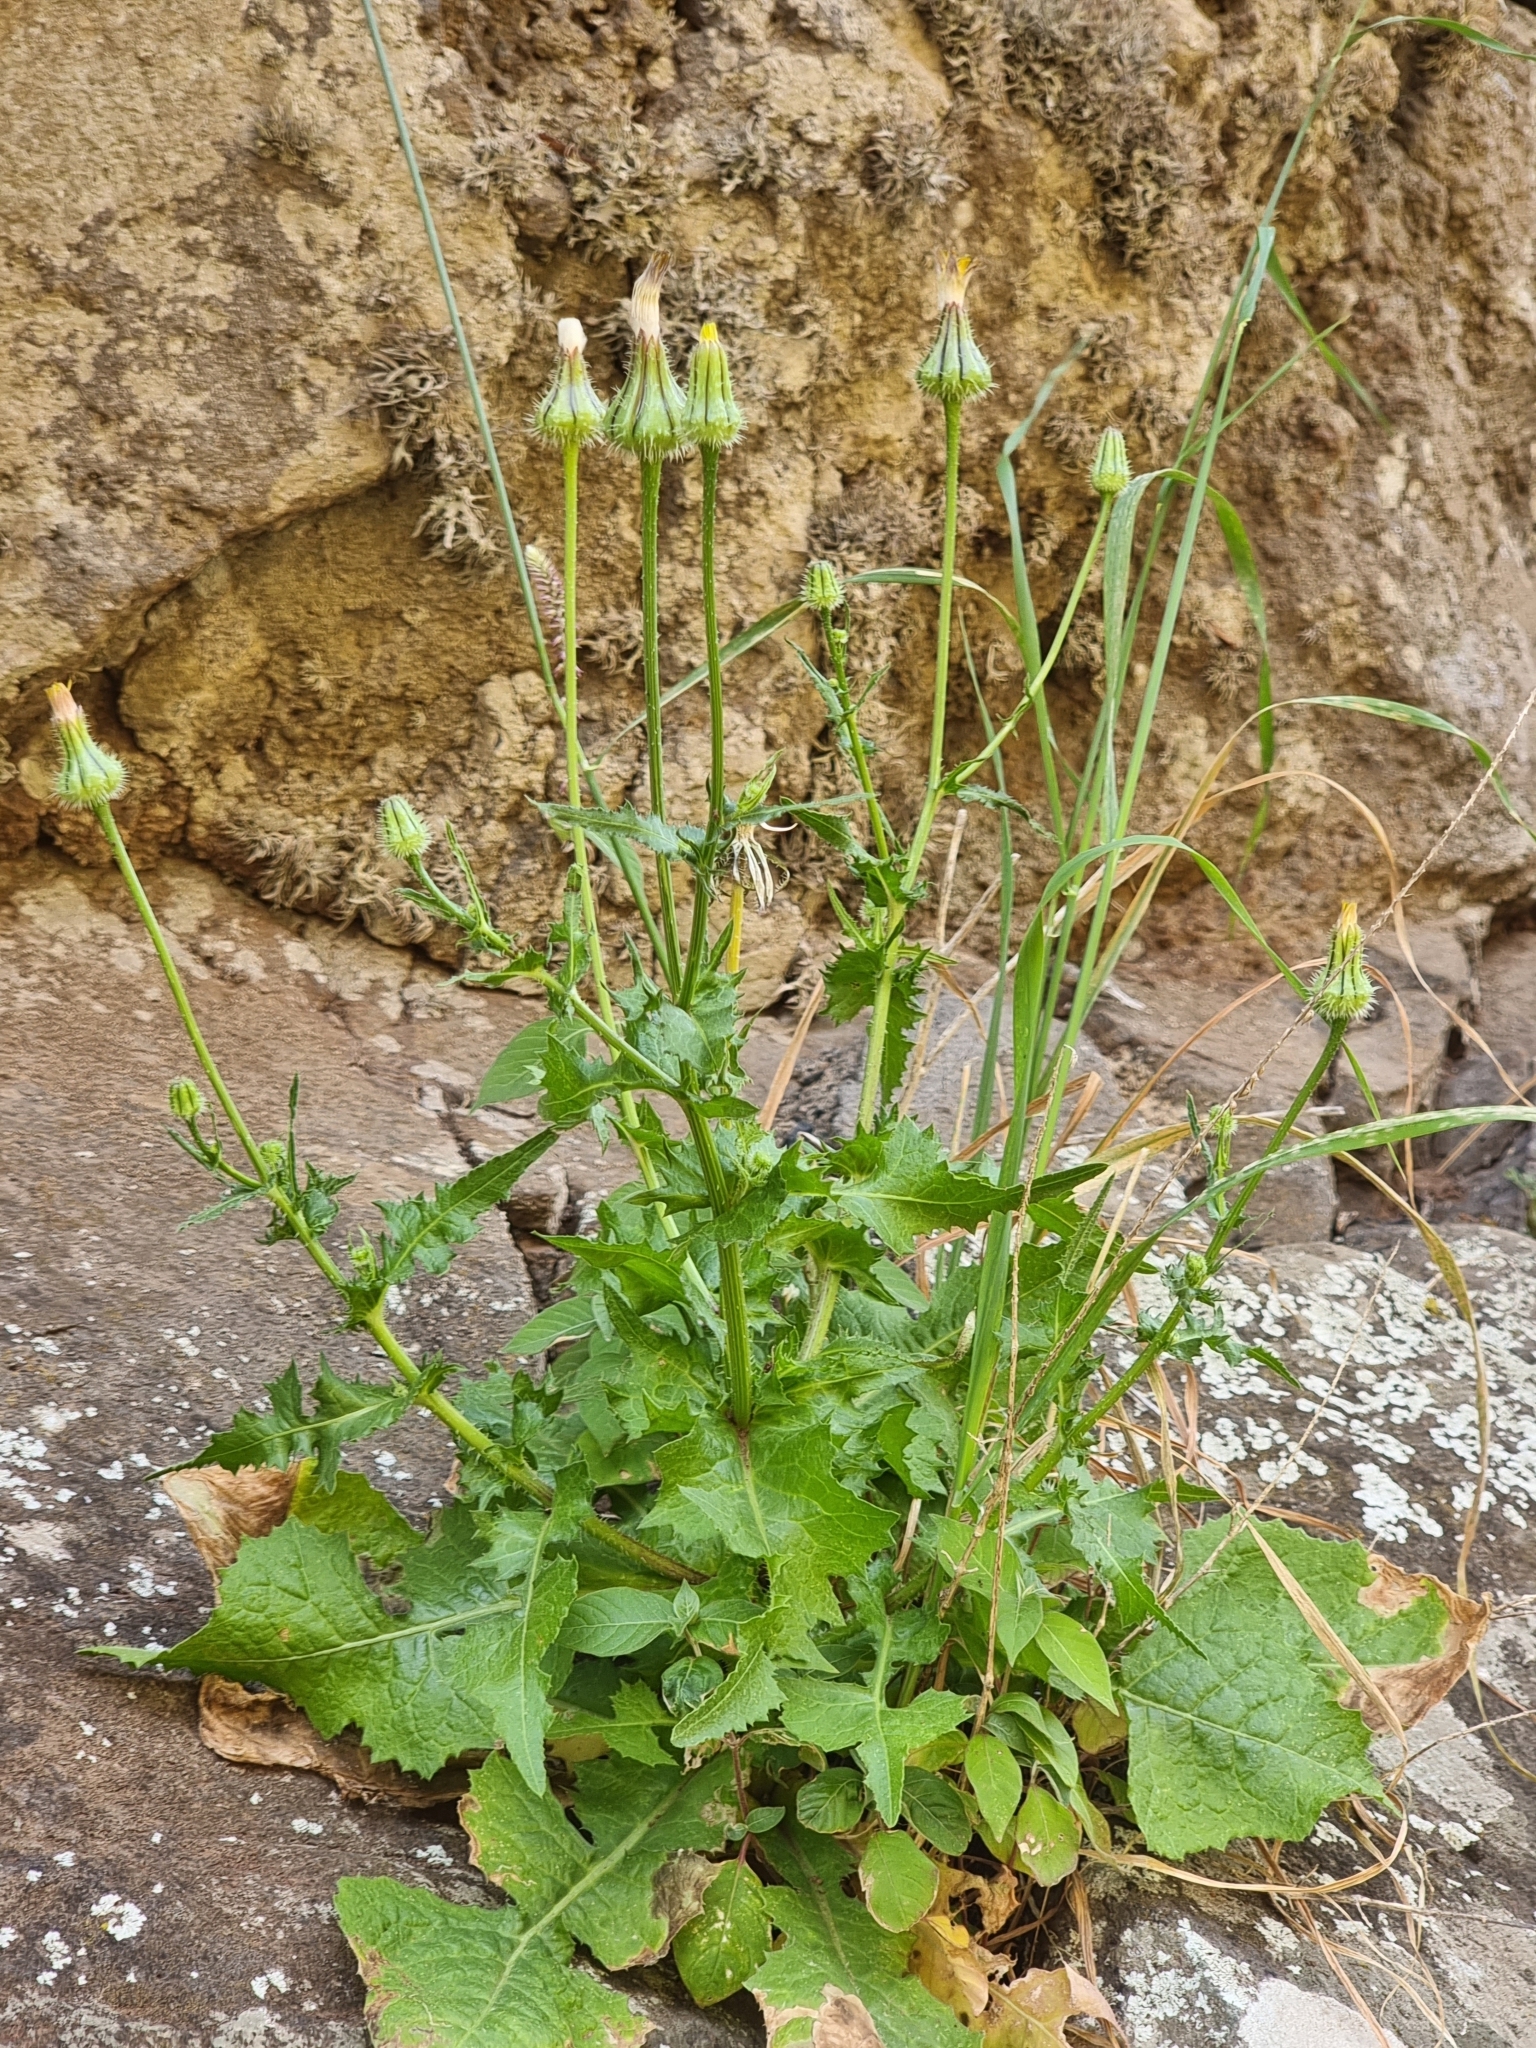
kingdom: Plantae
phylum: Tracheophyta
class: Magnoliopsida
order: Asterales
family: Asteraceae
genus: Urospermum
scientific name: Urospermum picroides
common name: False hawkbit
